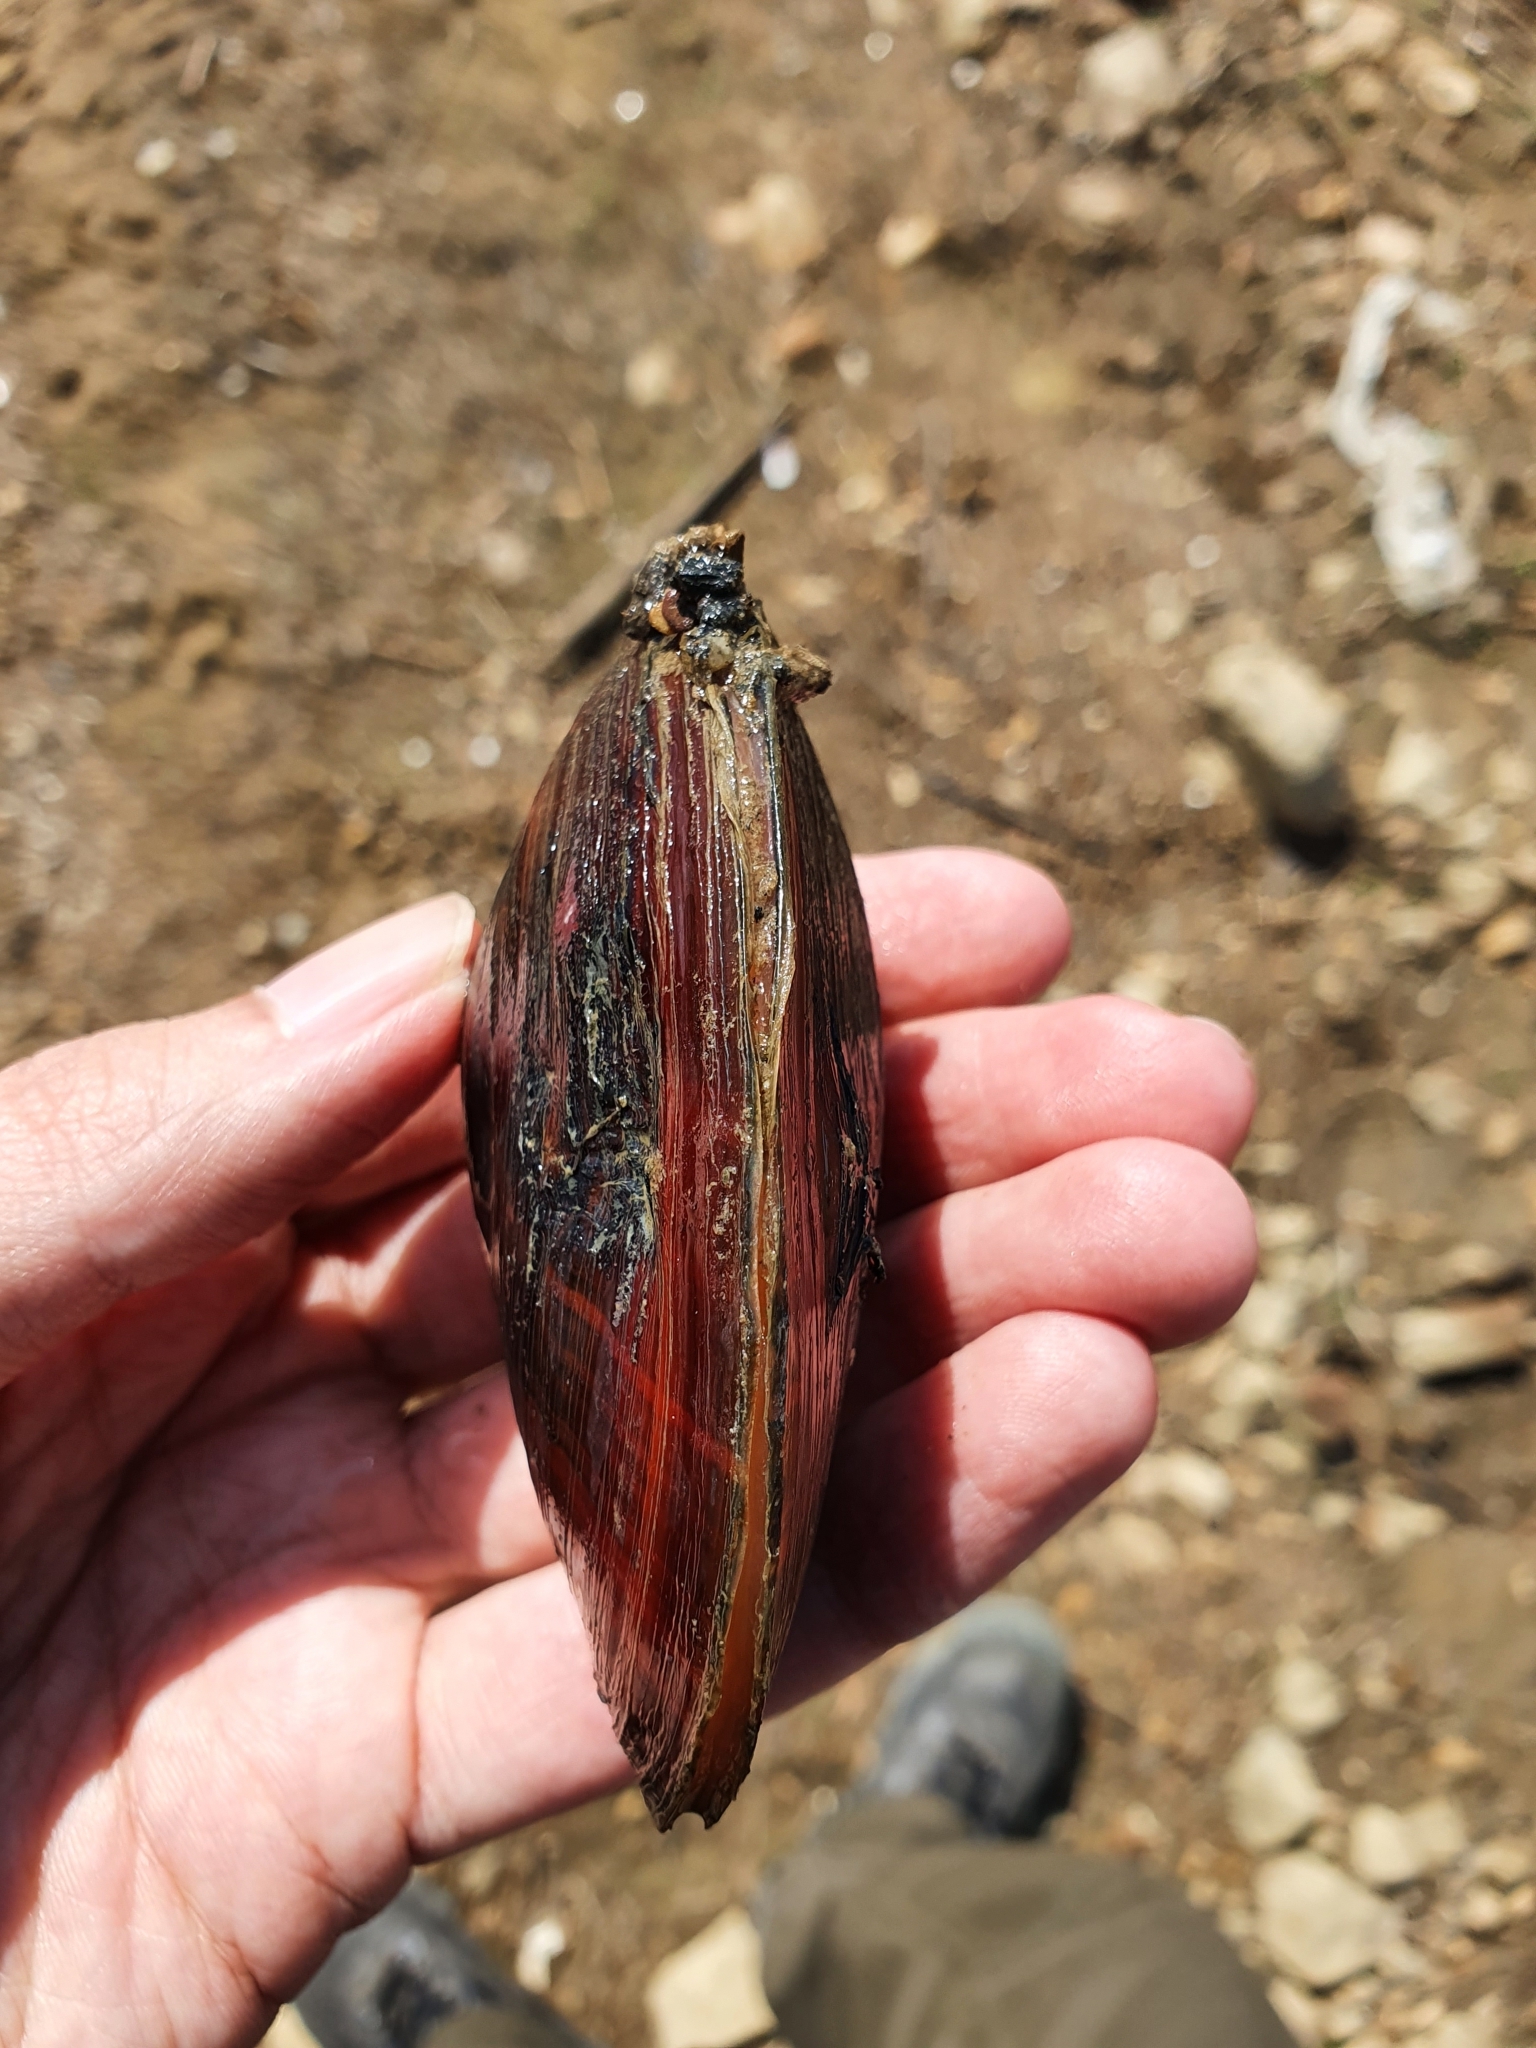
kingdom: Animalia
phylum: Mollusca
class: Bivalvia
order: Unionida
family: Unionidae
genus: Sinanodonta
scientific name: Sinanodonta woodiana
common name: Chinese pond mussel
